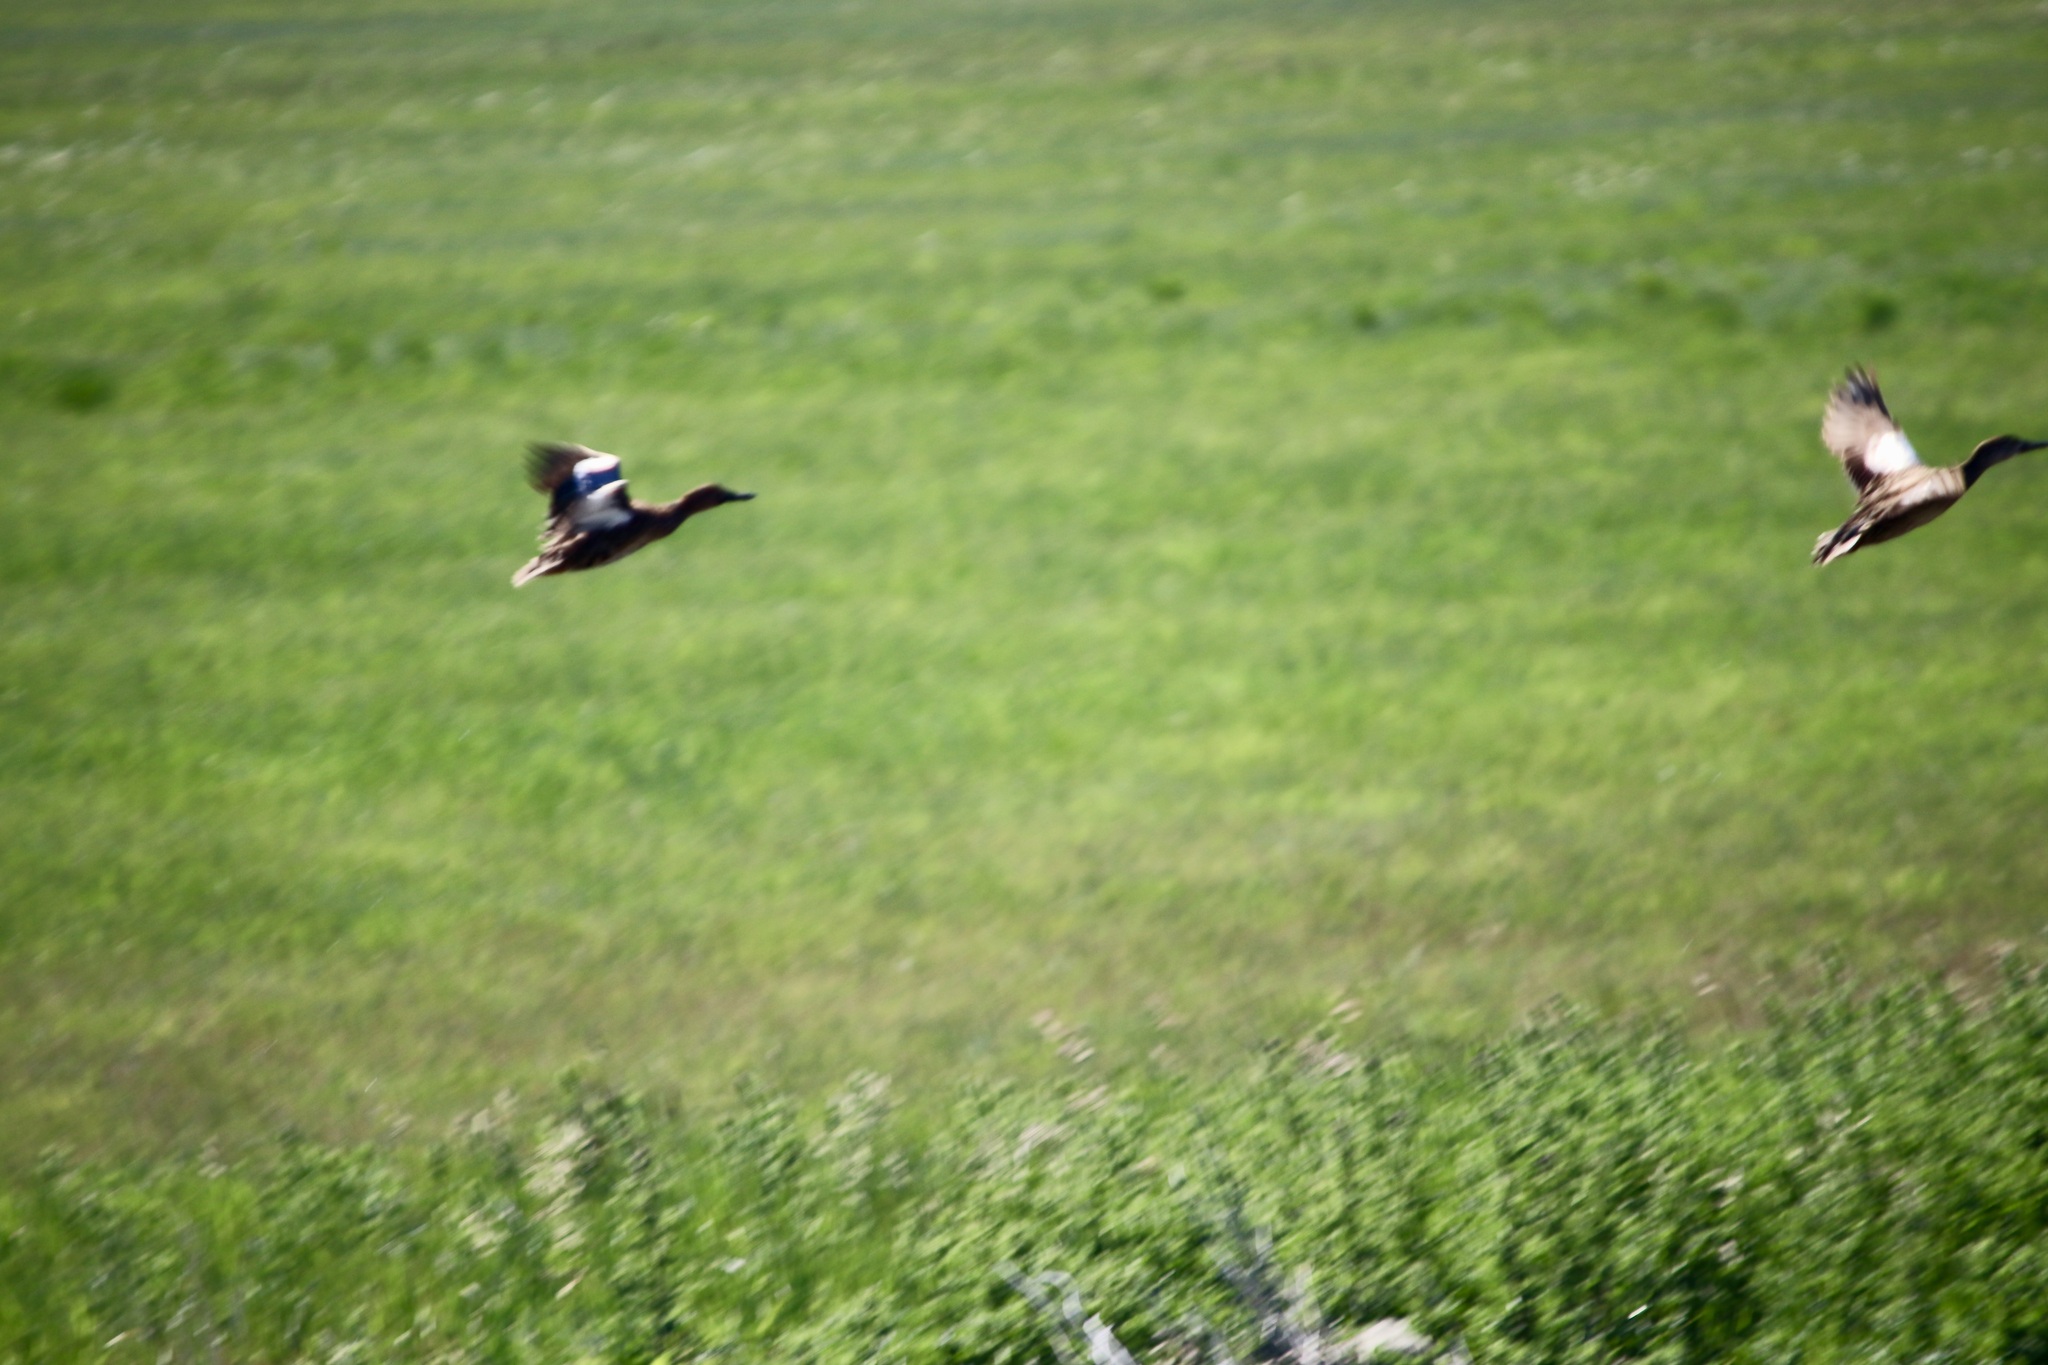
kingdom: Animalia
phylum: Chordata
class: Aves
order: Anseriformes
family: Anatidae
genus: Spatula
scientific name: Spatula discors
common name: Blue-winged teal
